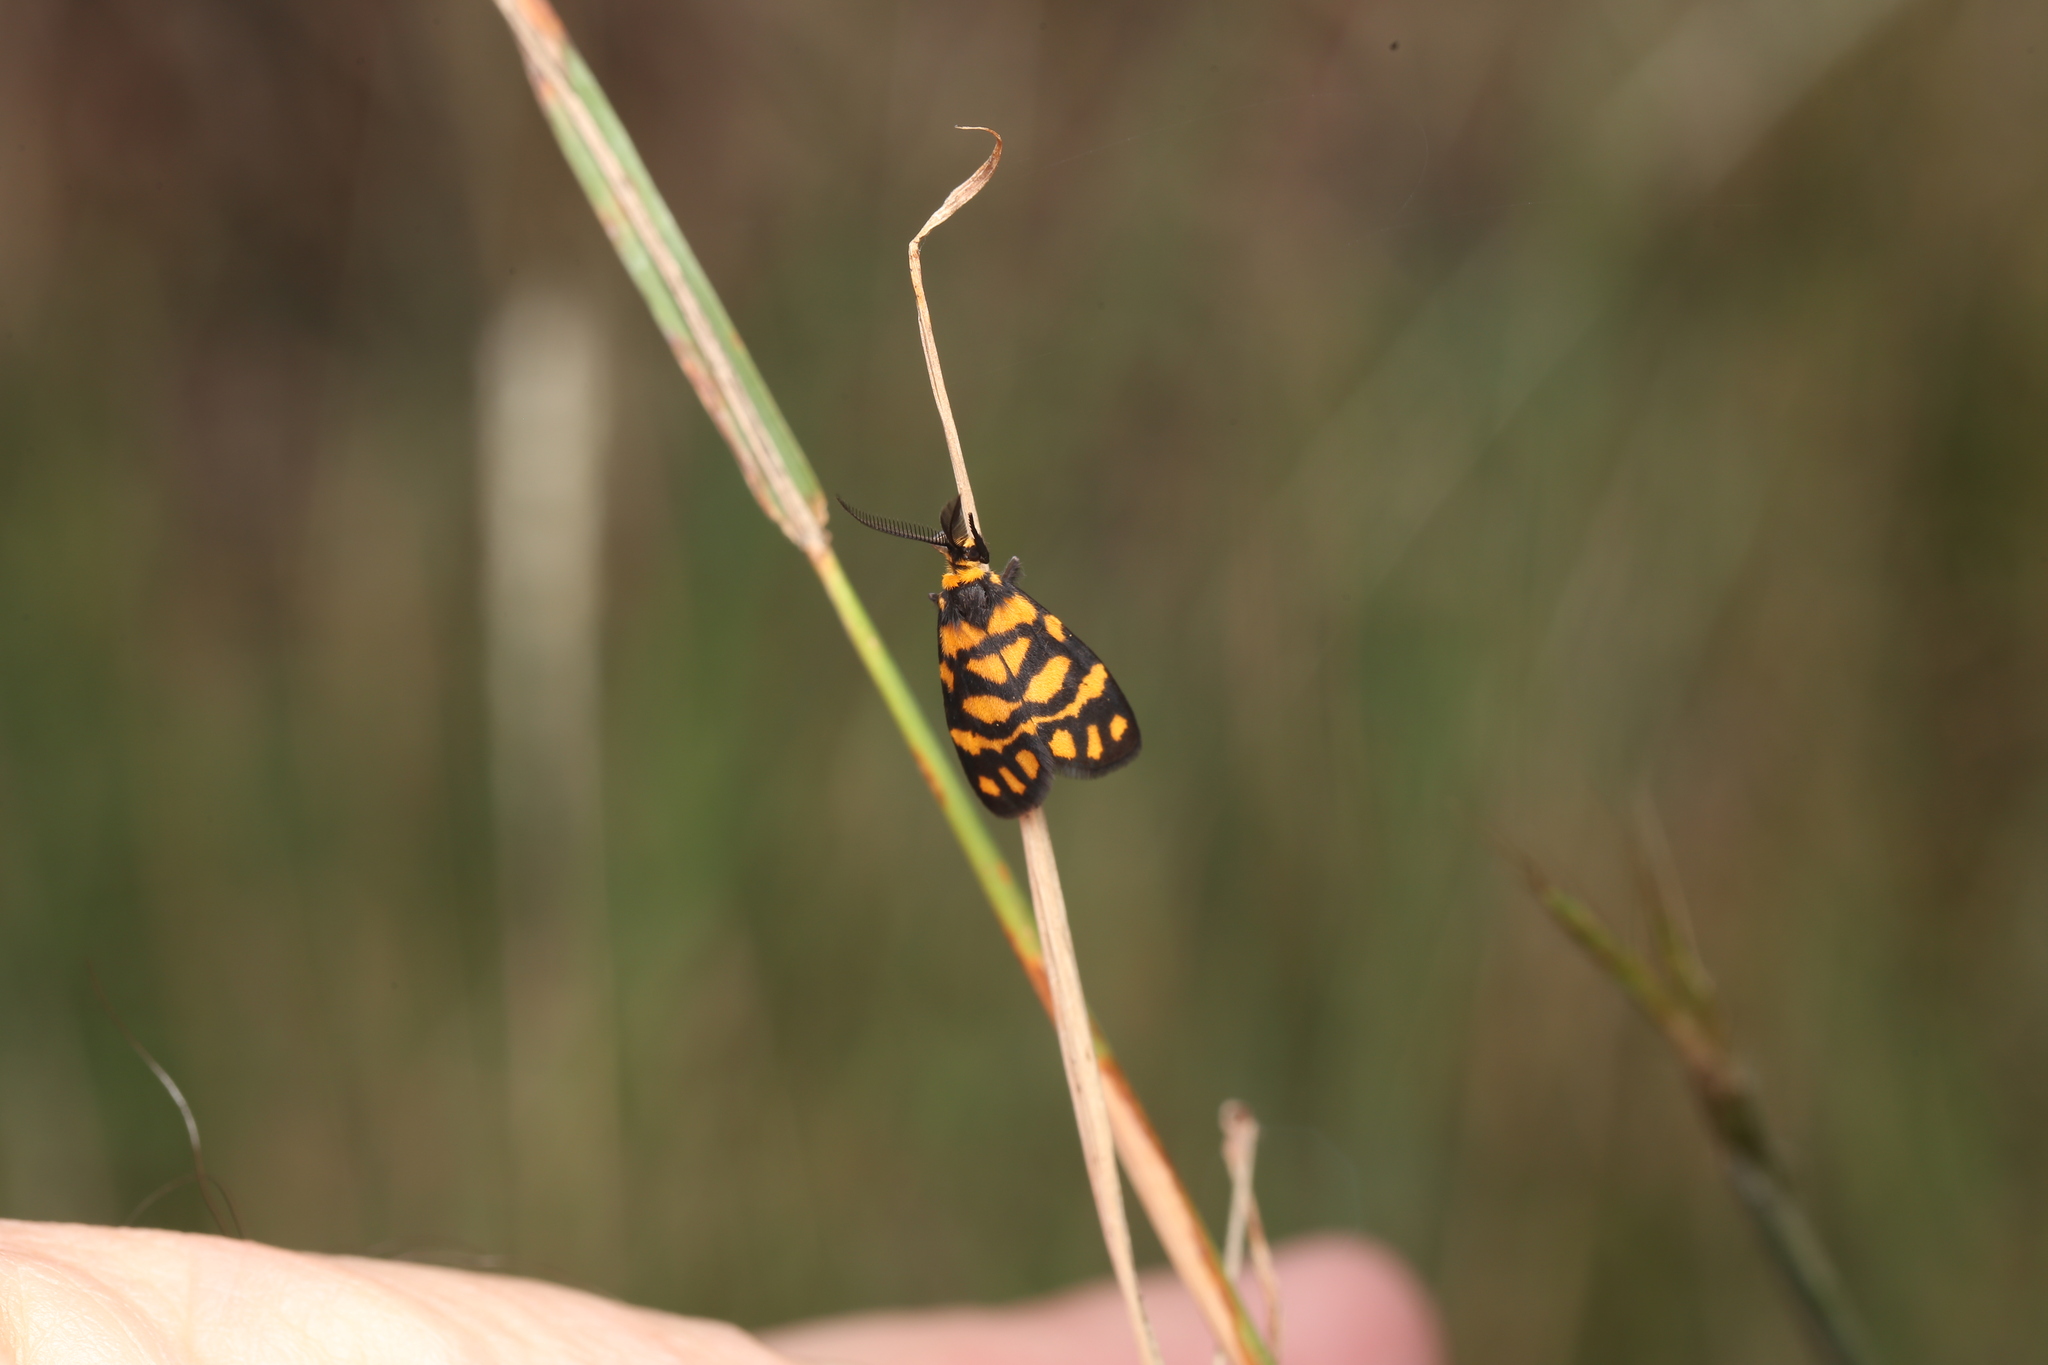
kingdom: Animalia
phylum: Arthropoda
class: Insecta
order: Lepidoptera
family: Erebidae
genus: Asura
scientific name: Asura lydia
